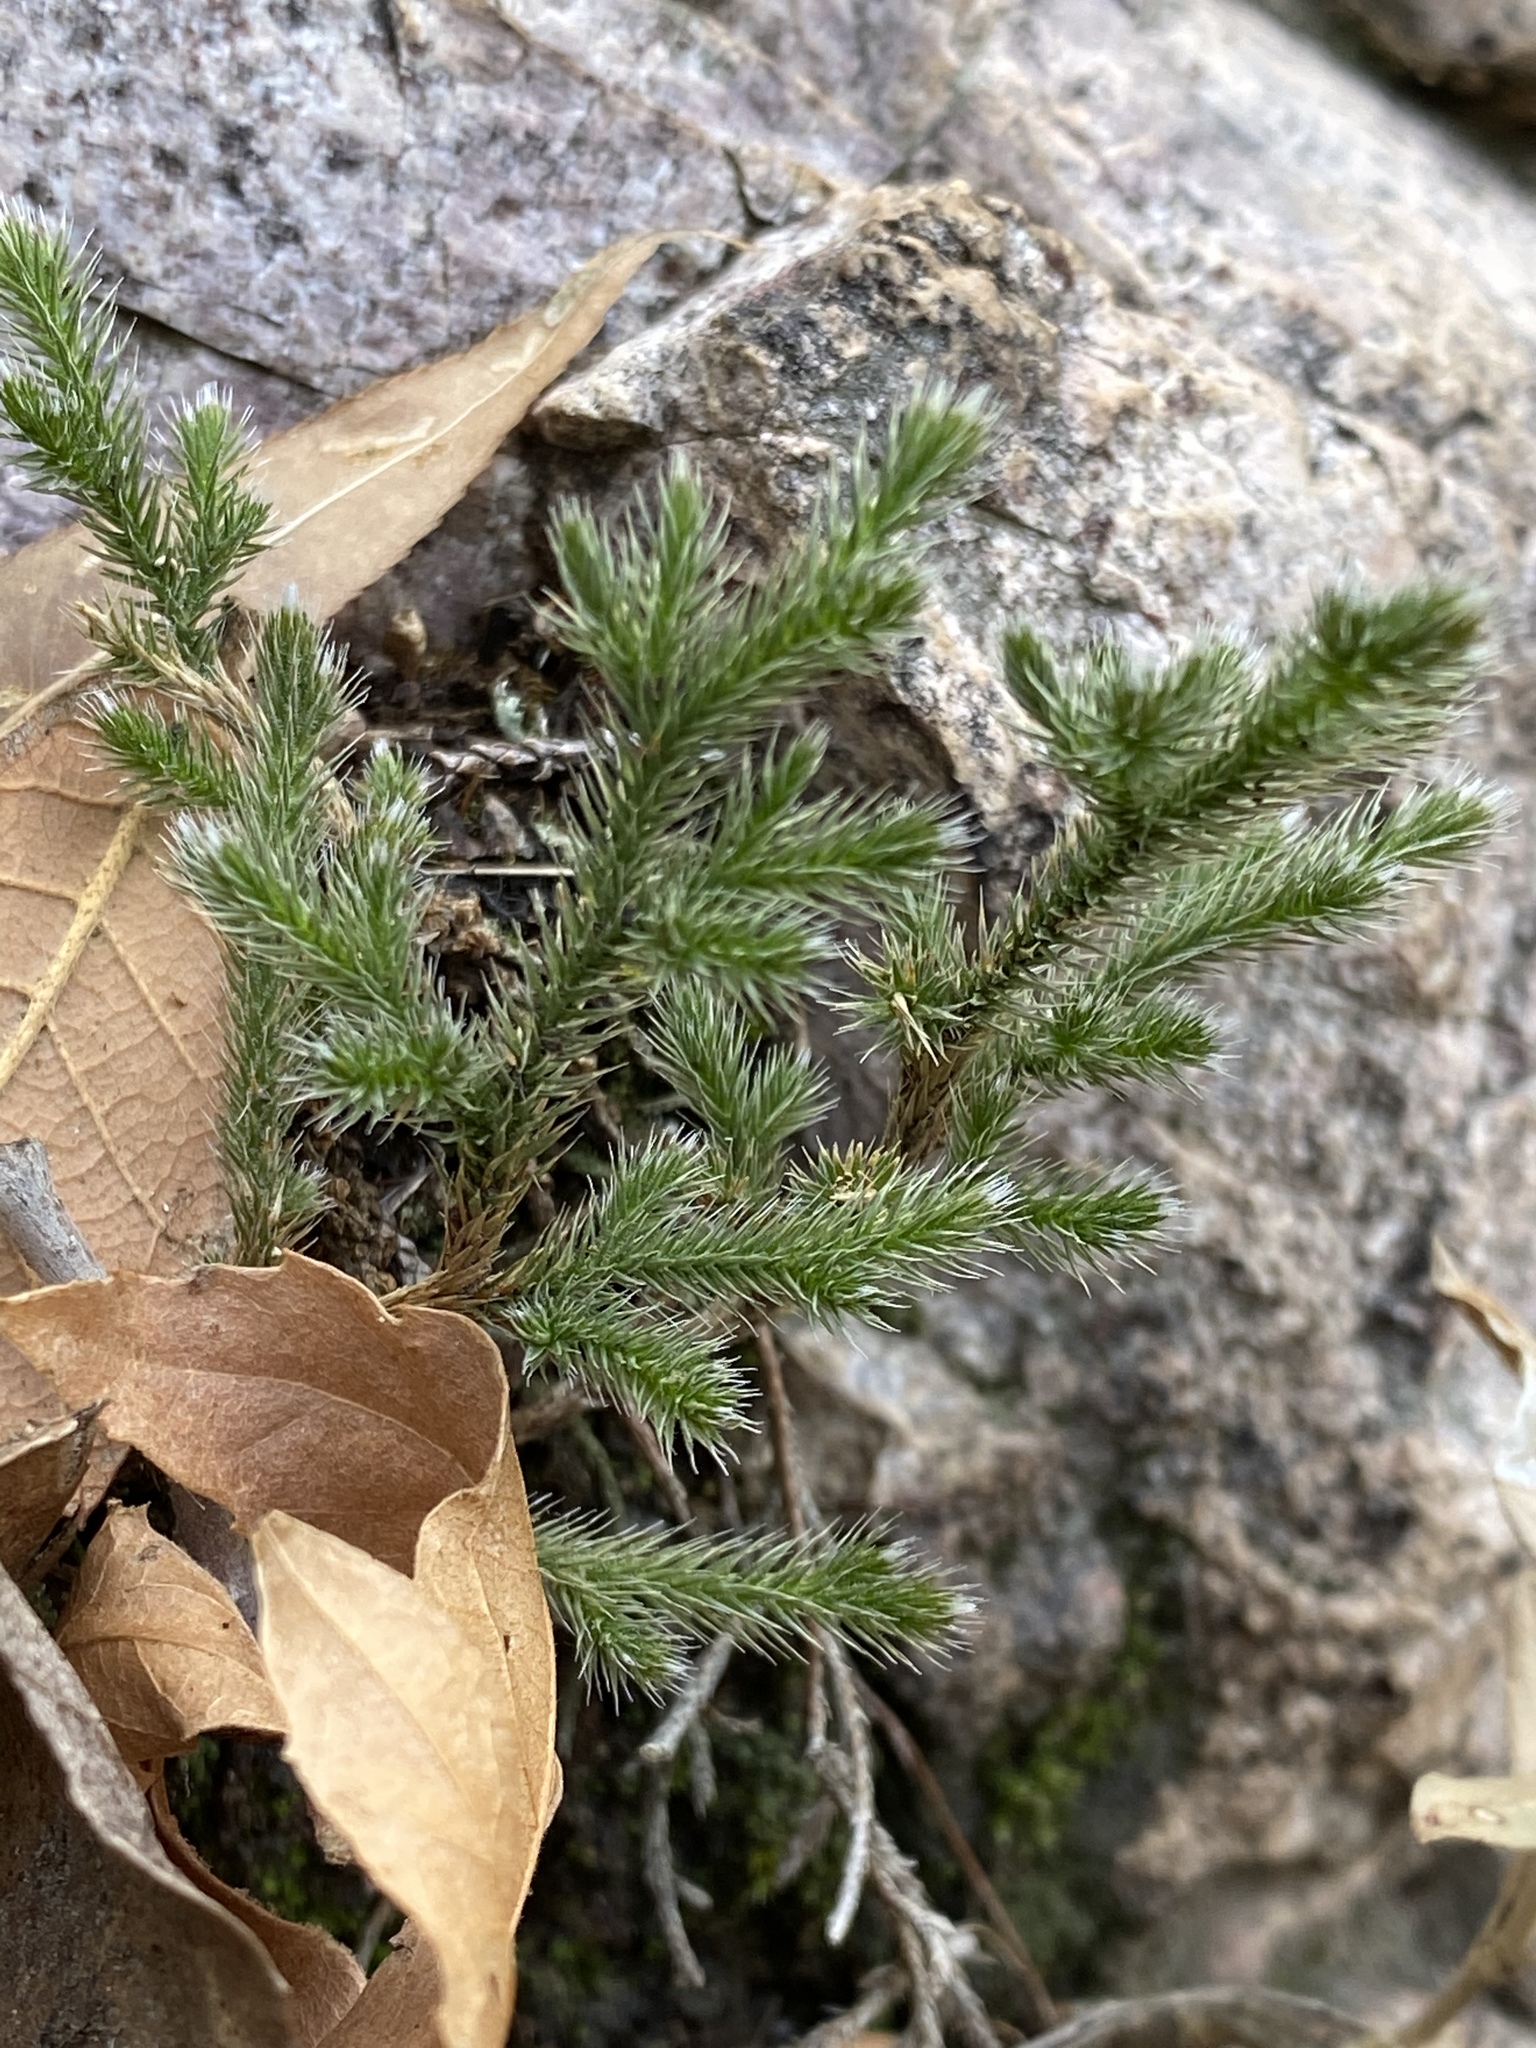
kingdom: Plantae
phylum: Tracheophyta
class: Lycopodiopsida
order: Selaginellales
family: Selaginellaceae
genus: Selaginella
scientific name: Selaginella rupincola
